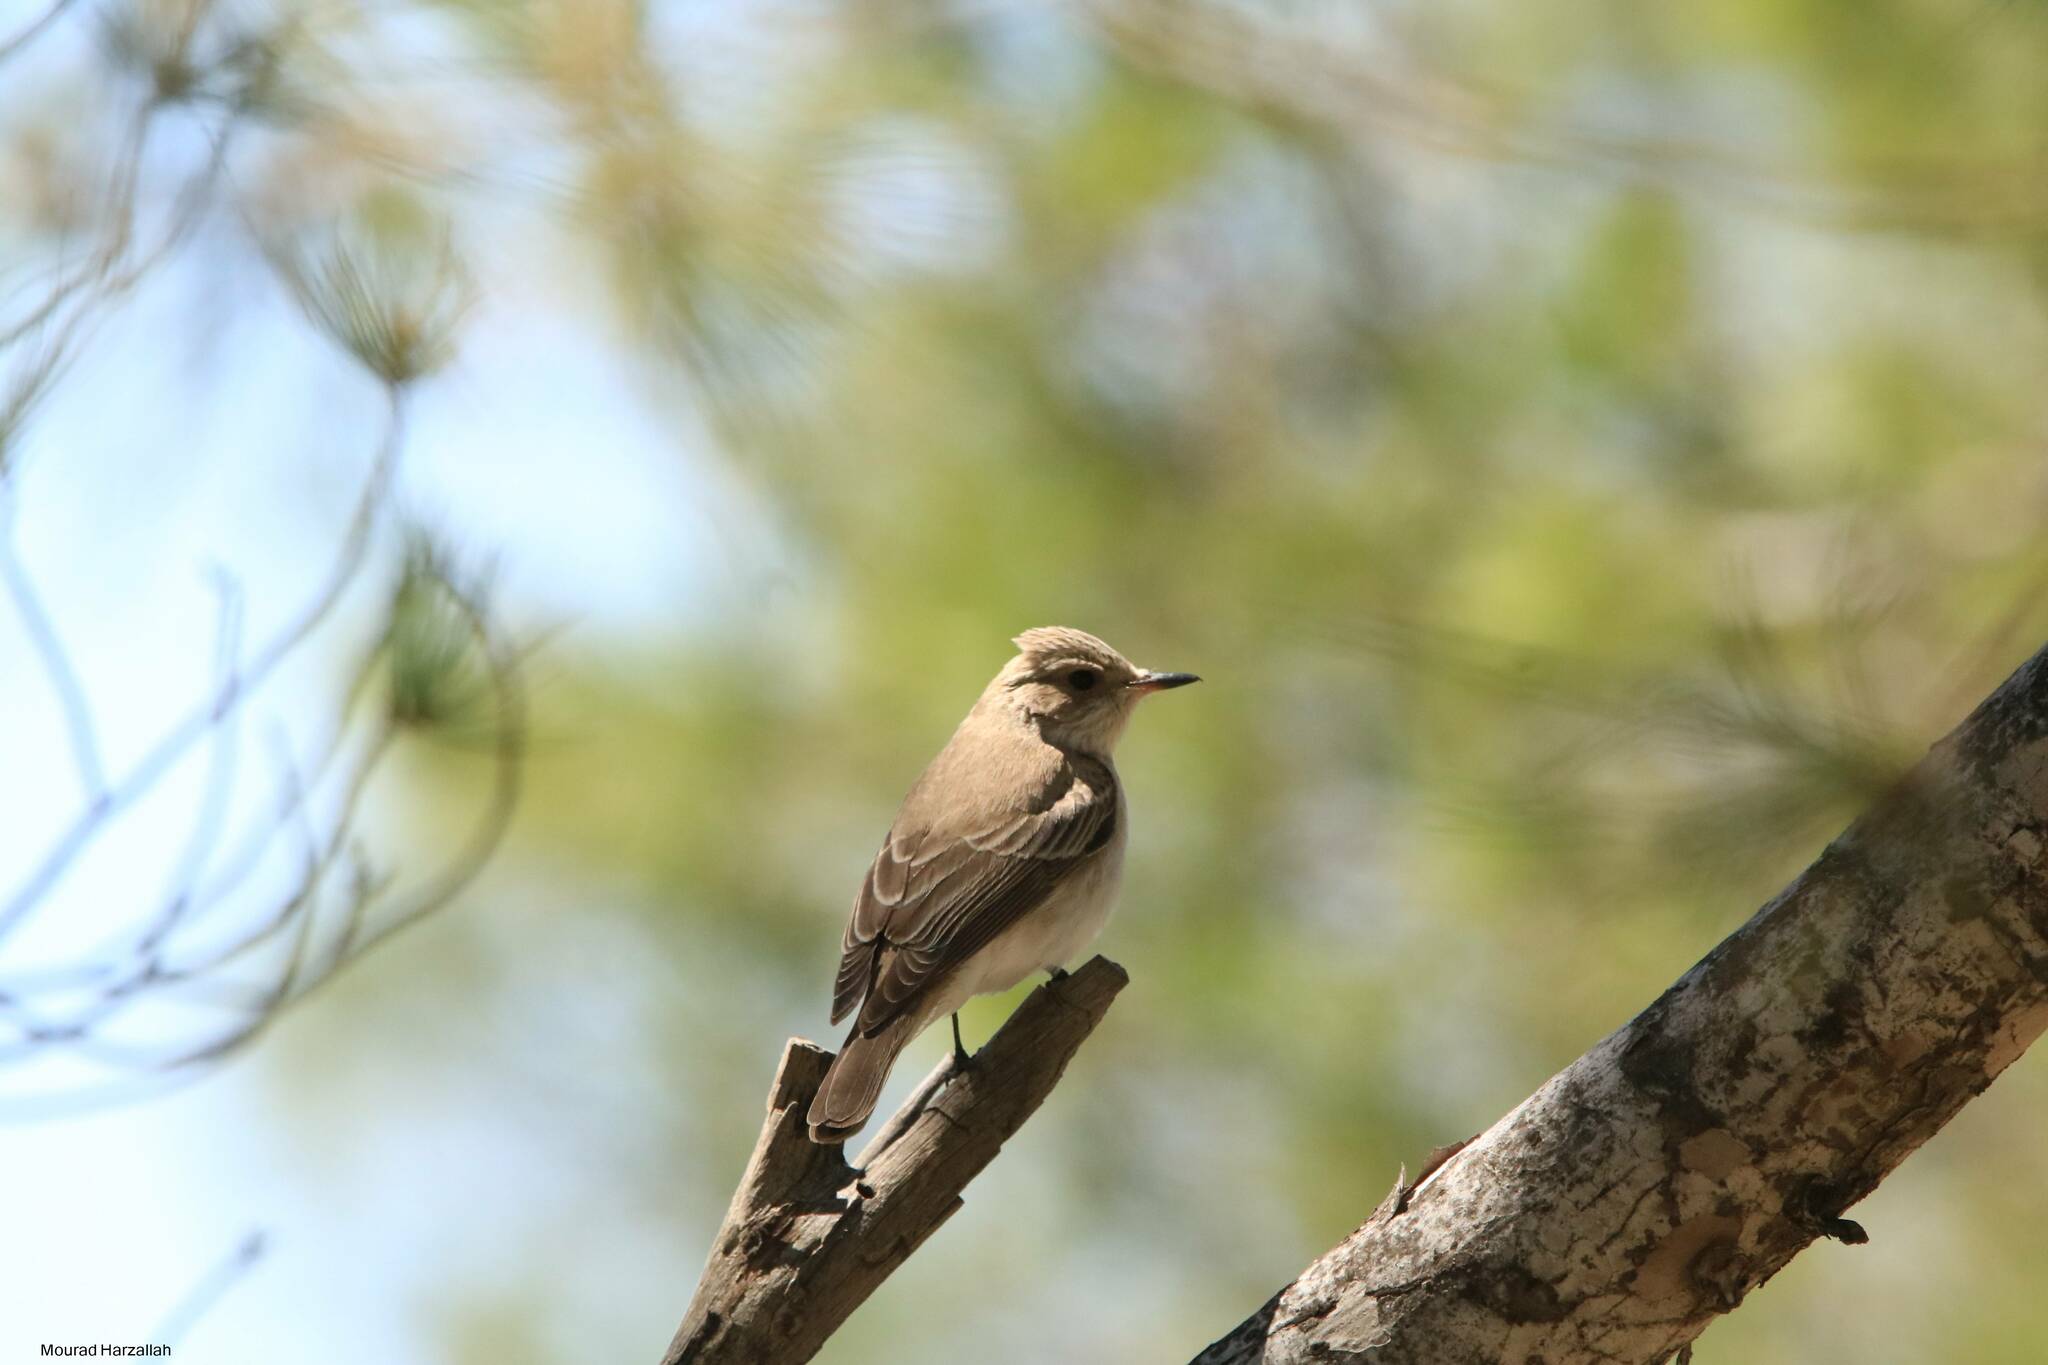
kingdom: Animalia
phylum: Chordata
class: Aves
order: Passeriformes
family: Muscicapidae
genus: Muscicapa
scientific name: Muscicapa striata
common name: Spotted flycatcher
